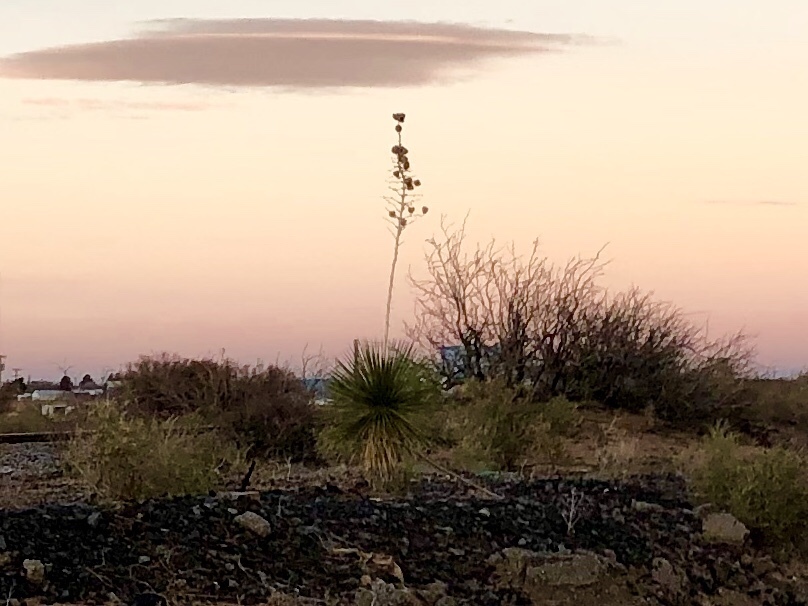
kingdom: Plantae
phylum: Tracheophyta
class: Liliopsida
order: Asparagales
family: Asparagaceae
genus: Yucca
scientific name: Yucca elata
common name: Palmella
